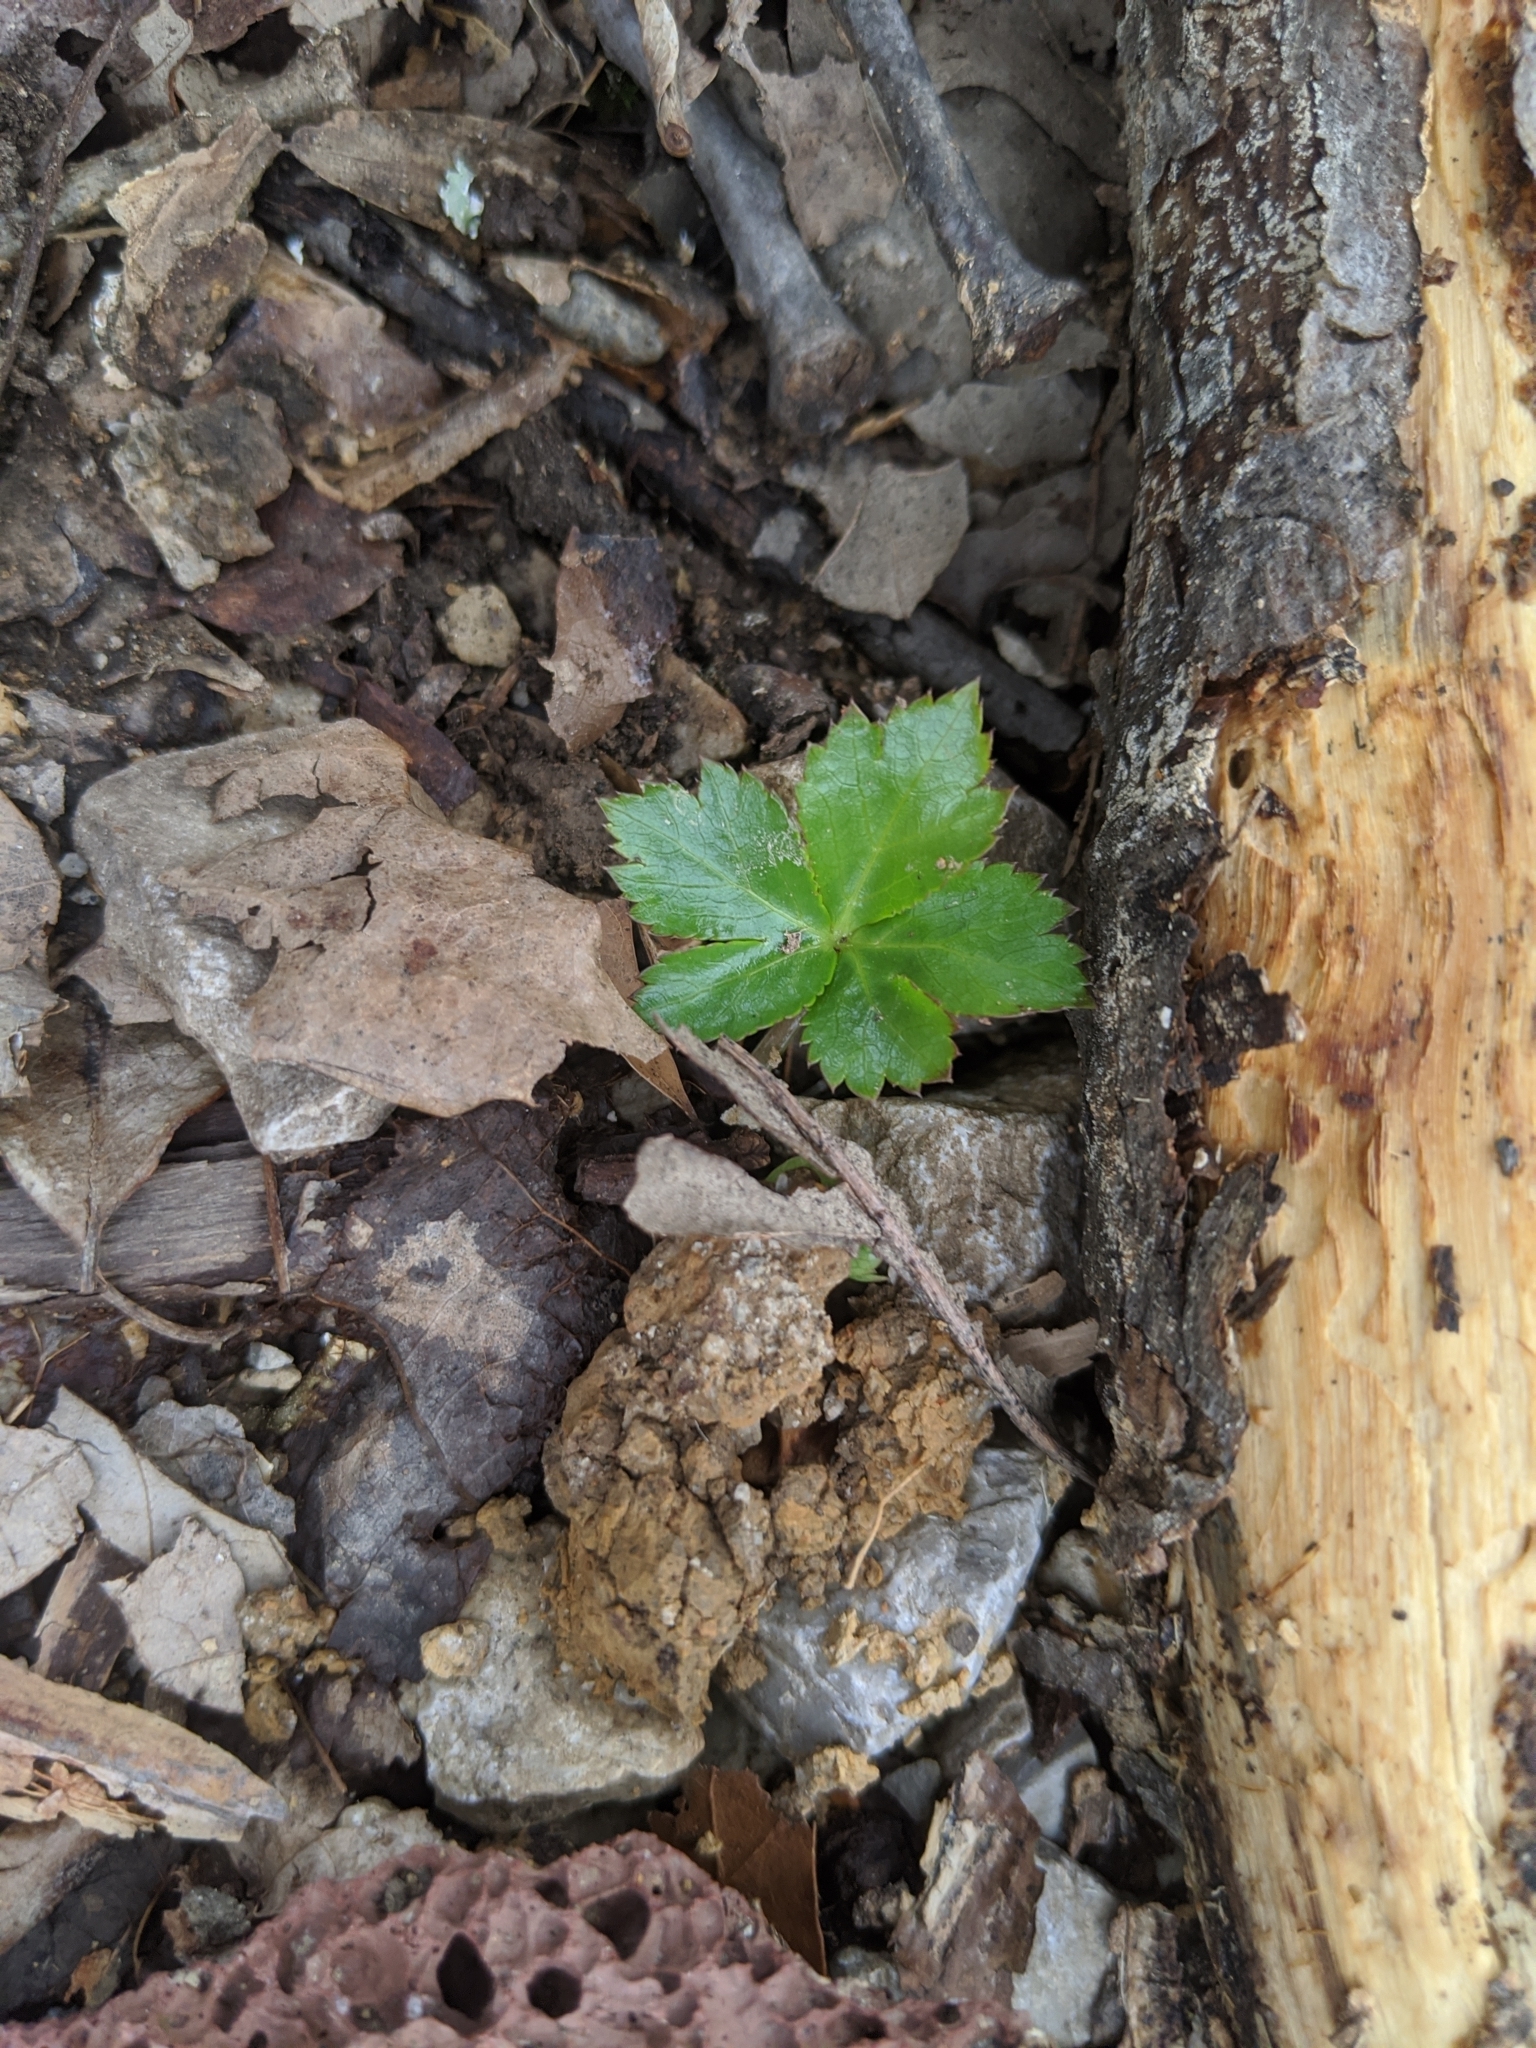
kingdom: Plantae
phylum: Tracheophyta
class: Magnoliopsida
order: Apiales
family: Apiaceae
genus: Sanicula
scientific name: Sanicula canadensis
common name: Canada sanicle
